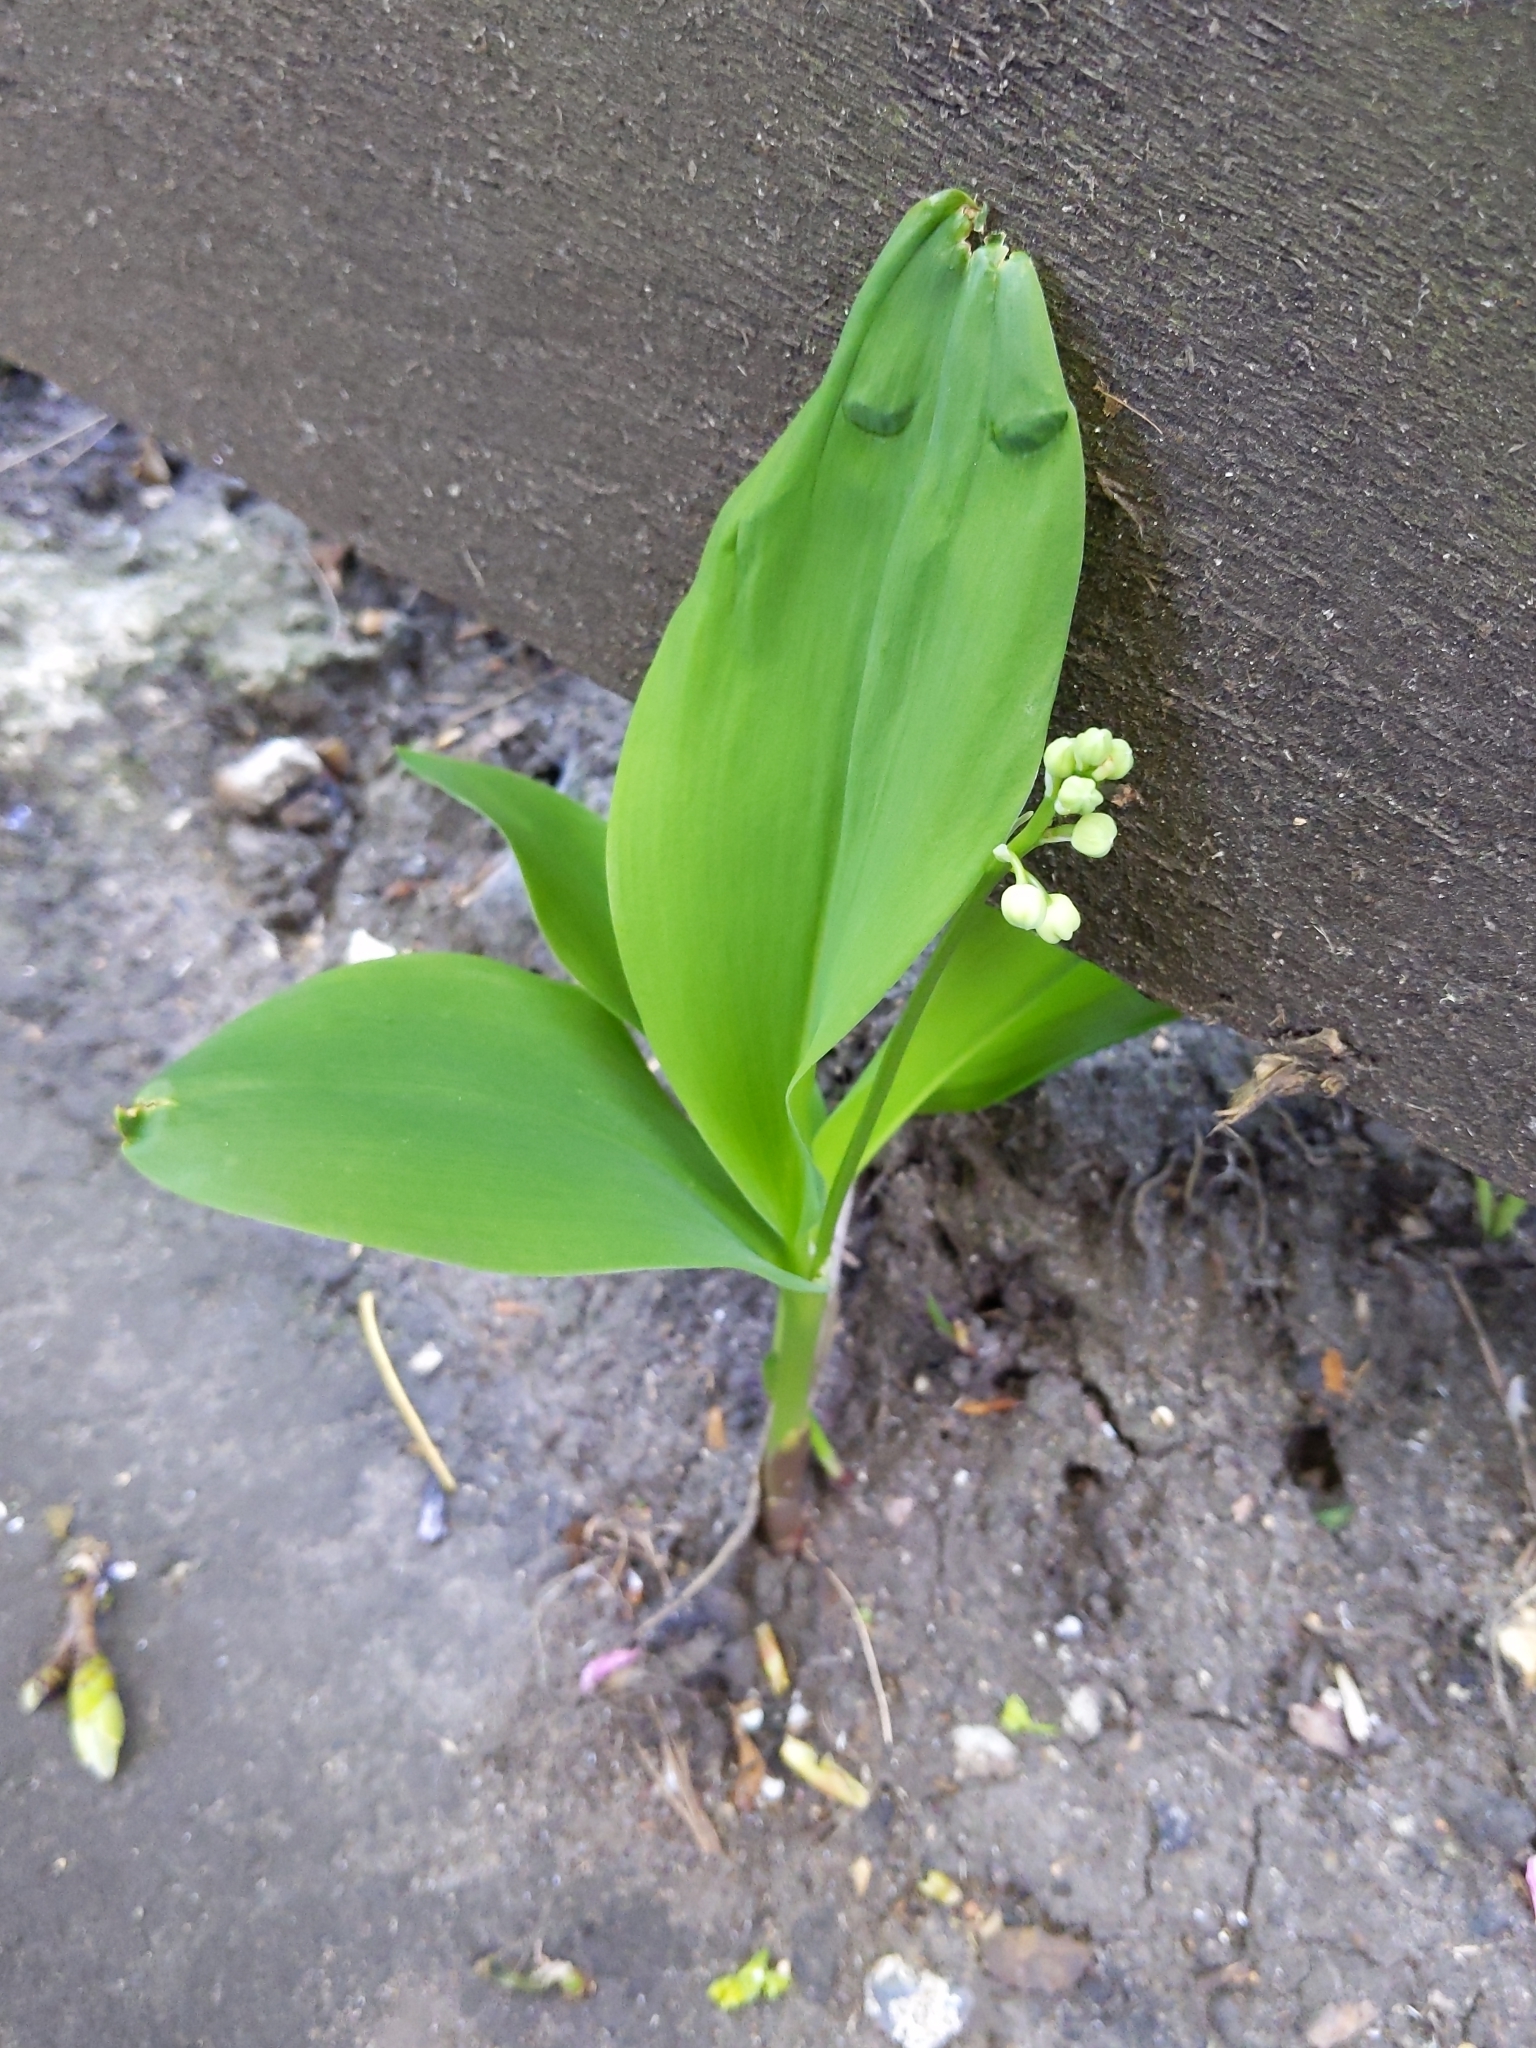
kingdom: Plantae
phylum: Tracheophyta
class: Liliopsida
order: Asparagales
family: Asparagaceae
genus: Convallaria
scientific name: Convallaria majalis
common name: Lily-of-the-valley
